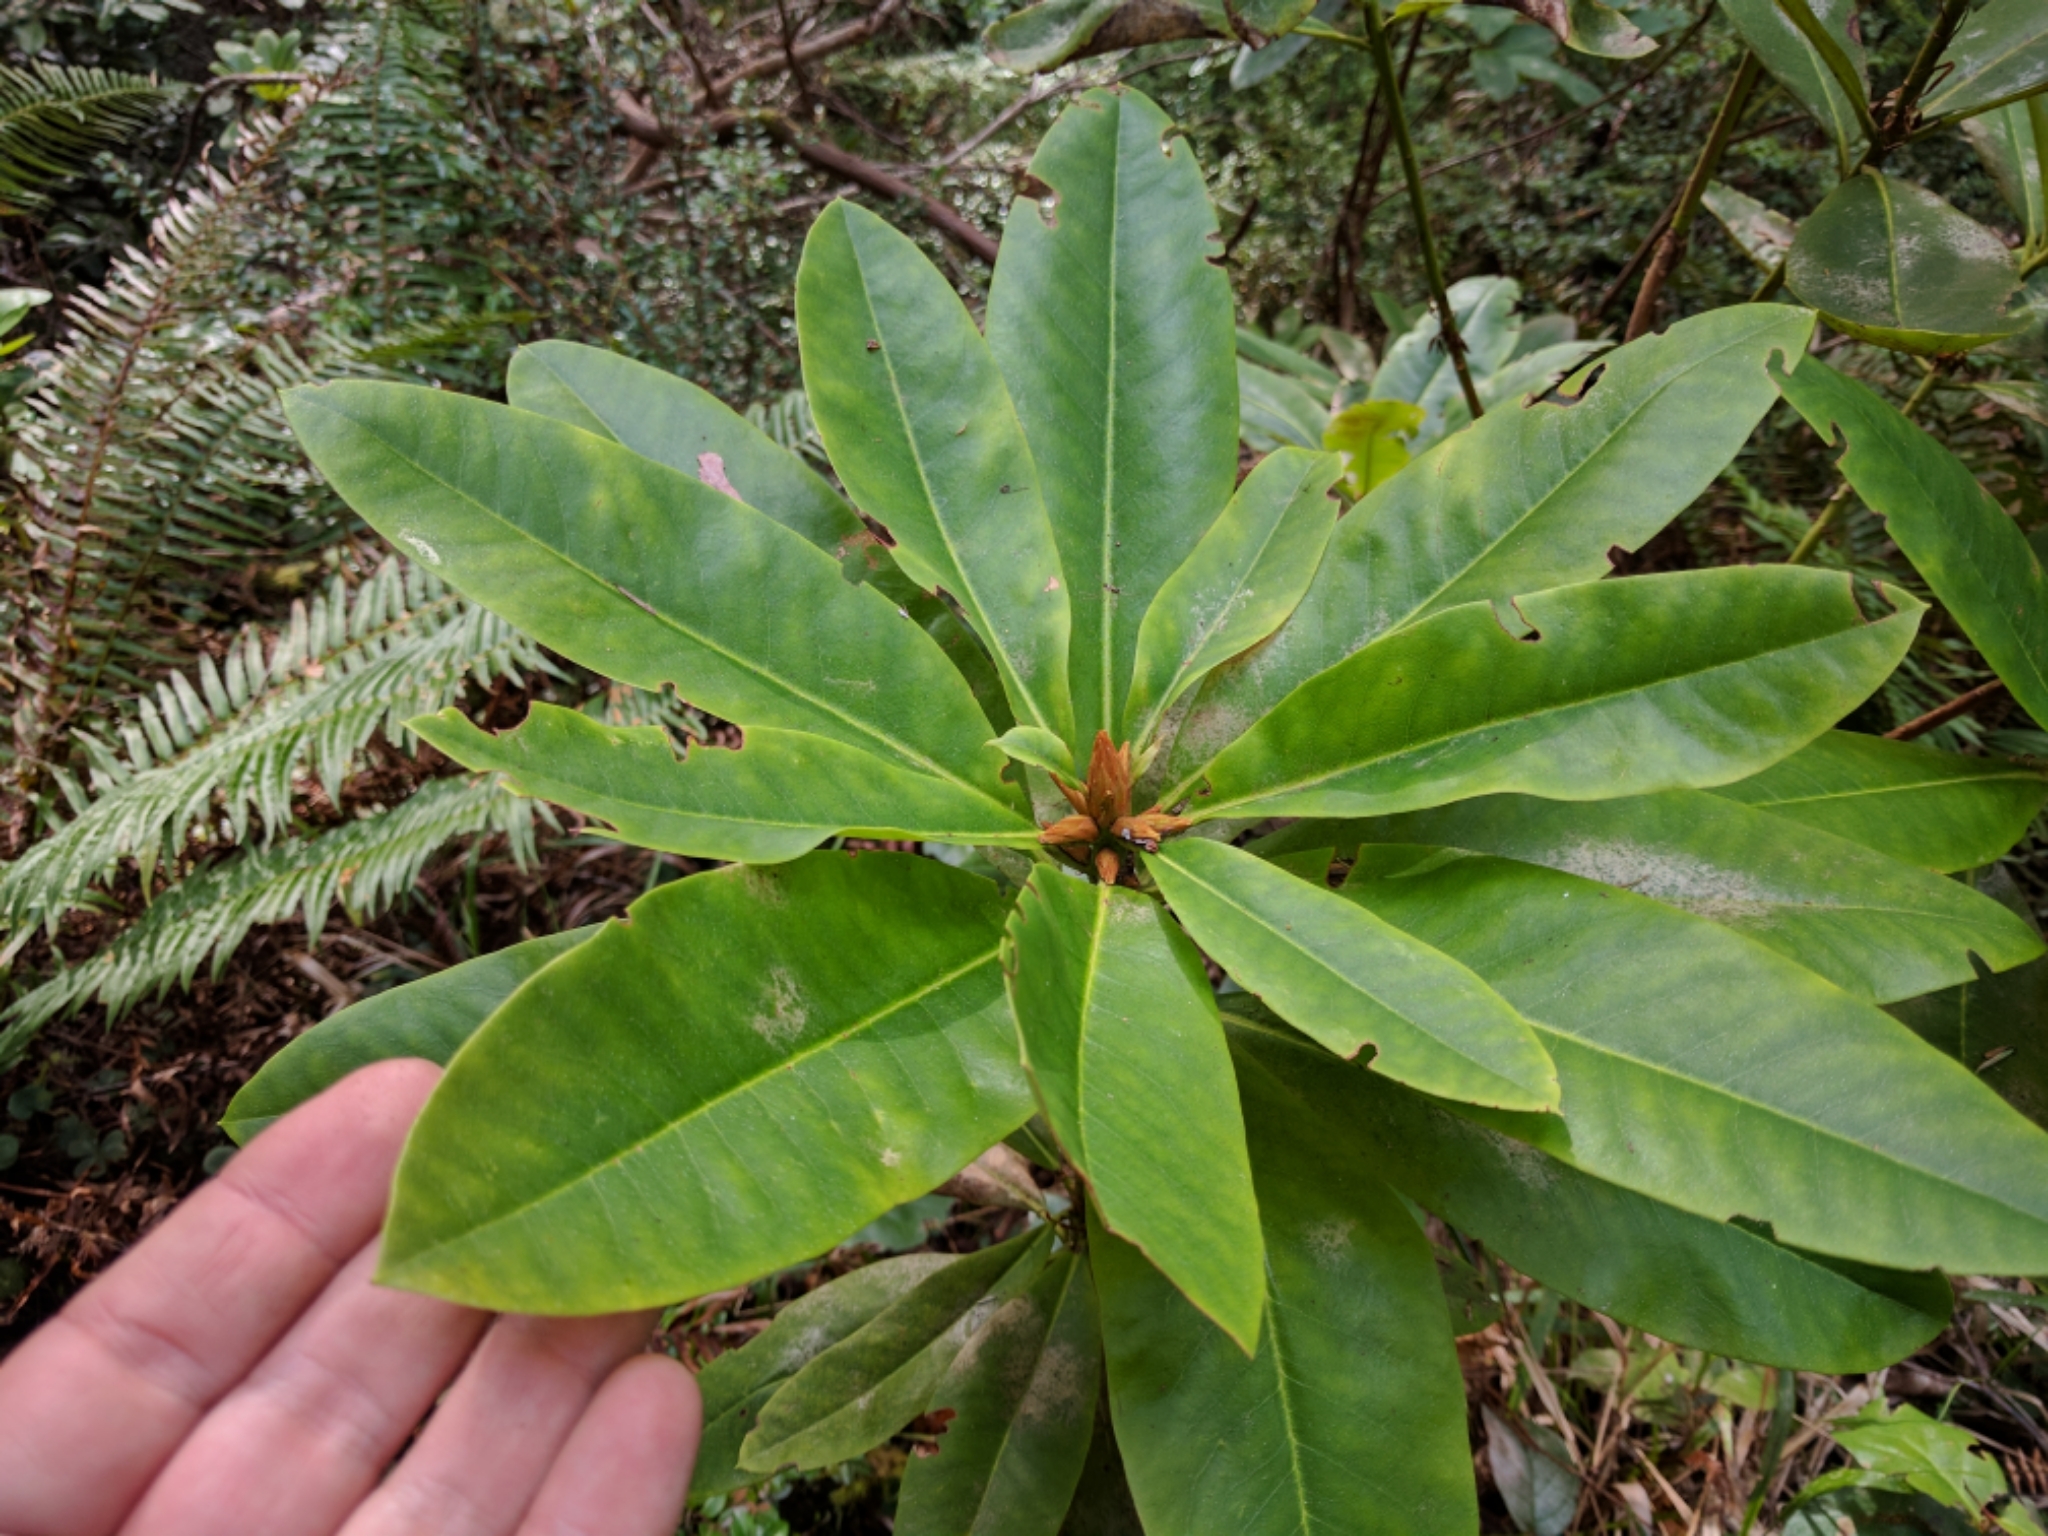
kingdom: Plantae
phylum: Tracheophyta
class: Magnoliopsida
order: Ericales
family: Ericaceae
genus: Rhododendron
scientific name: Rhododendron macrophyllum
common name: California rose bay
